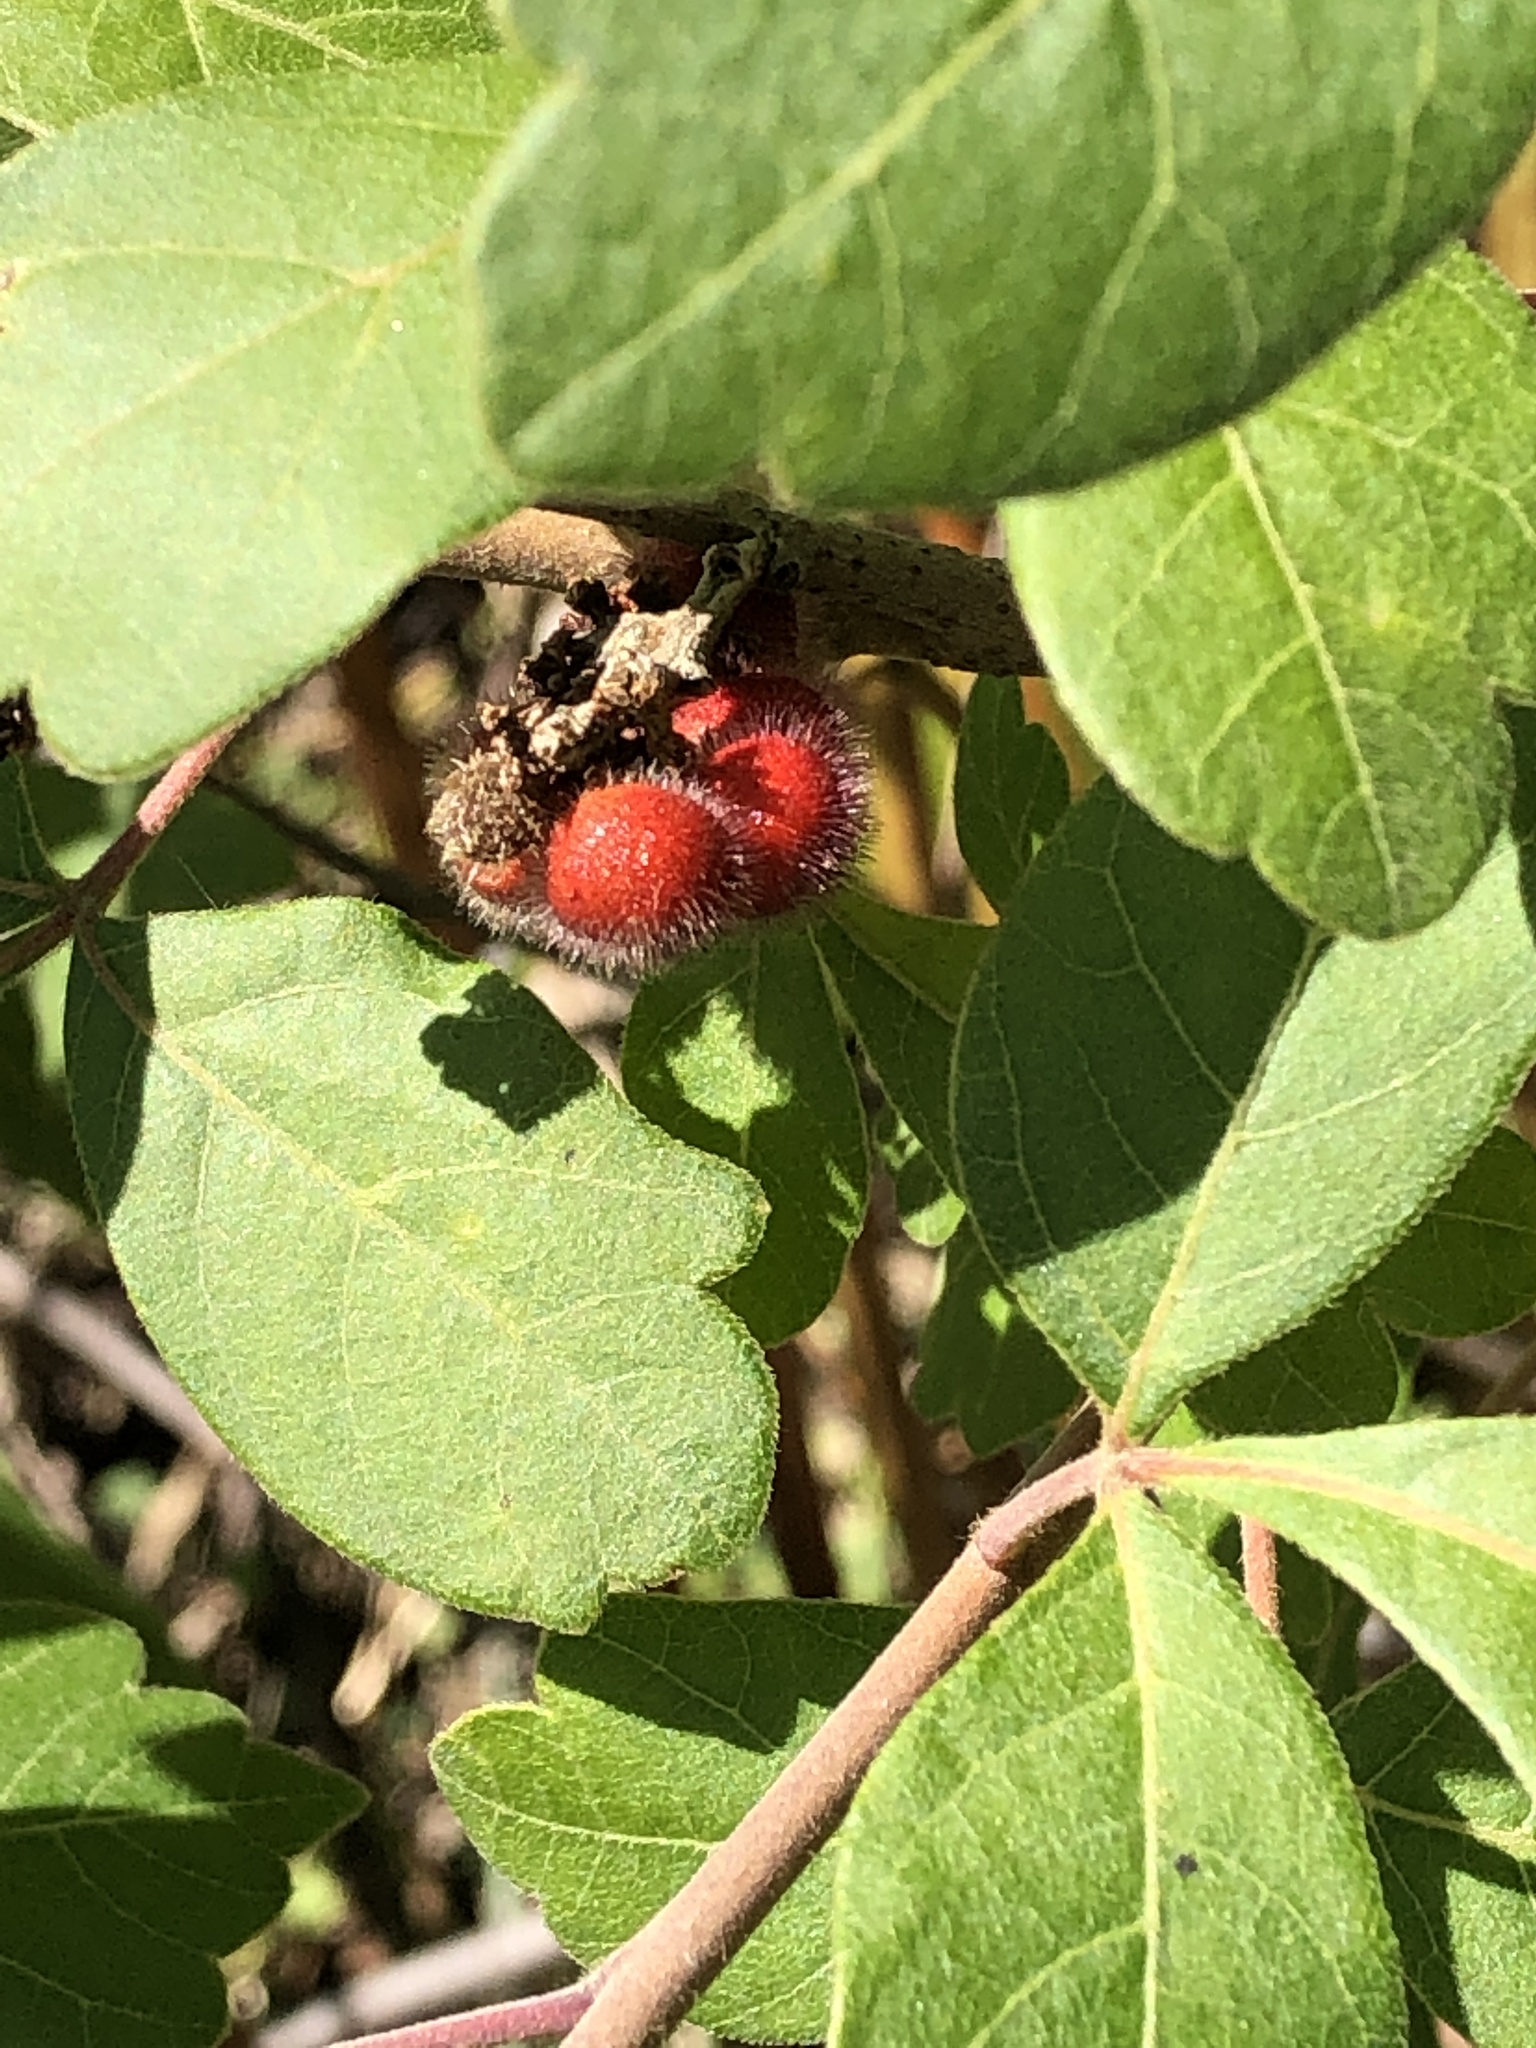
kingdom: Plantae
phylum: Tracheophyta
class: Magnoliopsida
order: Sapindales
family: Anacardiaceae
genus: Rhus
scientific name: Rhus aromatica
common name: Aromatic sumac
